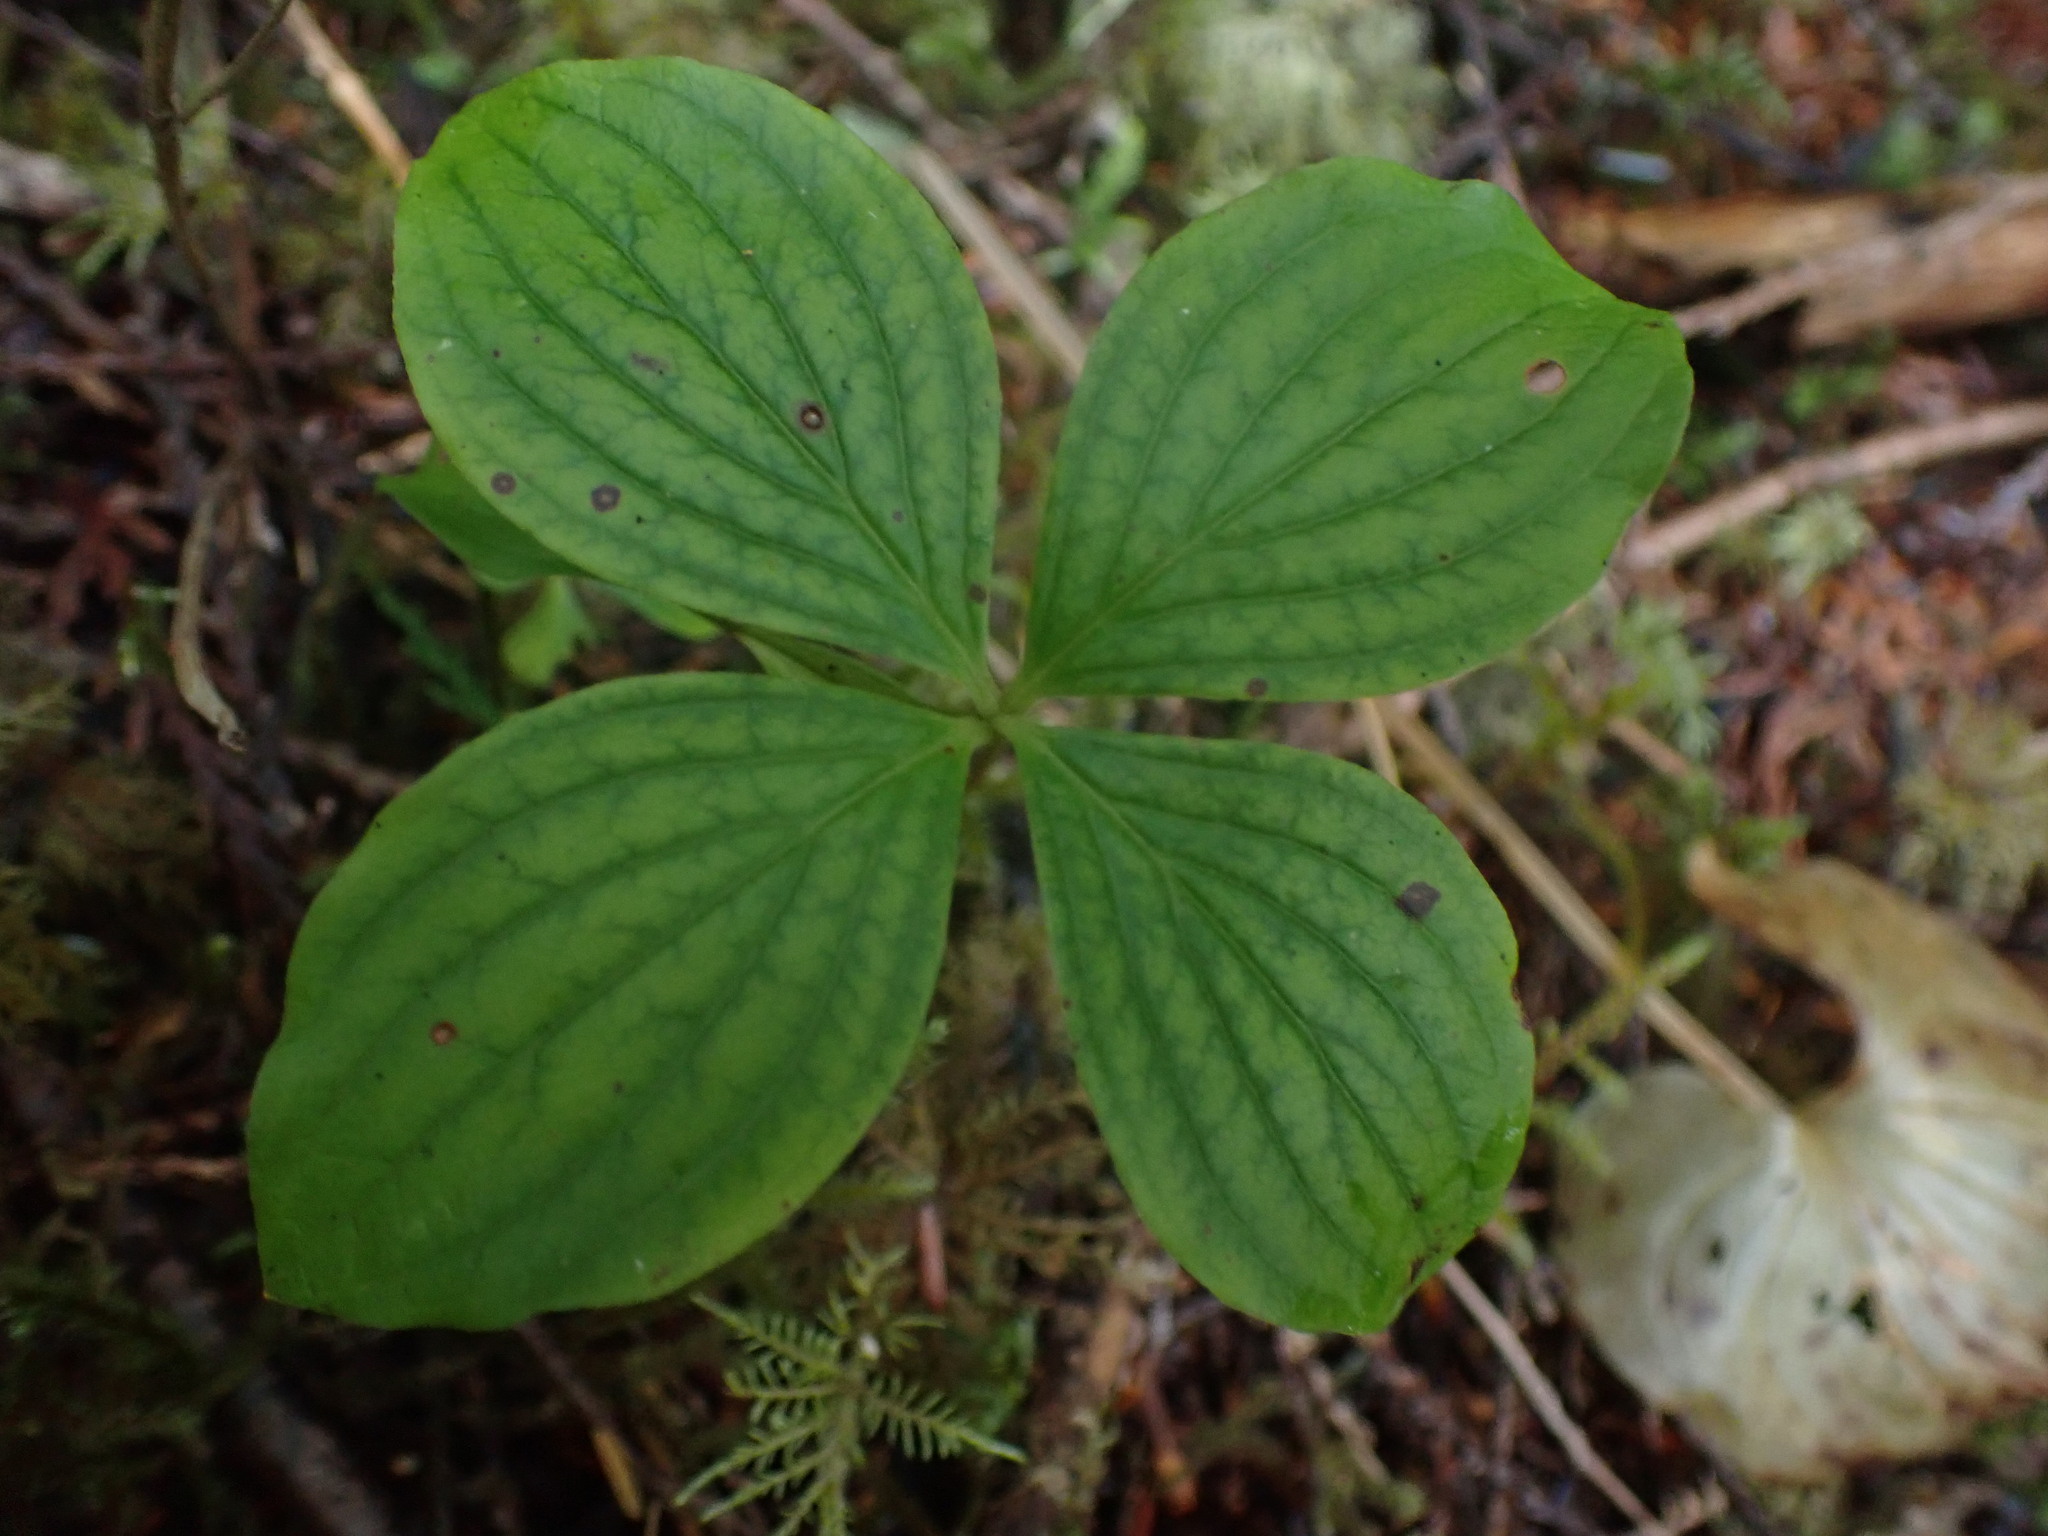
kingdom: Plantae
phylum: Tracheophyta
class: Magnoliopsida
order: Cornales
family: Cornaceae
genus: Cornus
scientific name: Cornus unalaschkensis
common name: Alaska bunchberry
